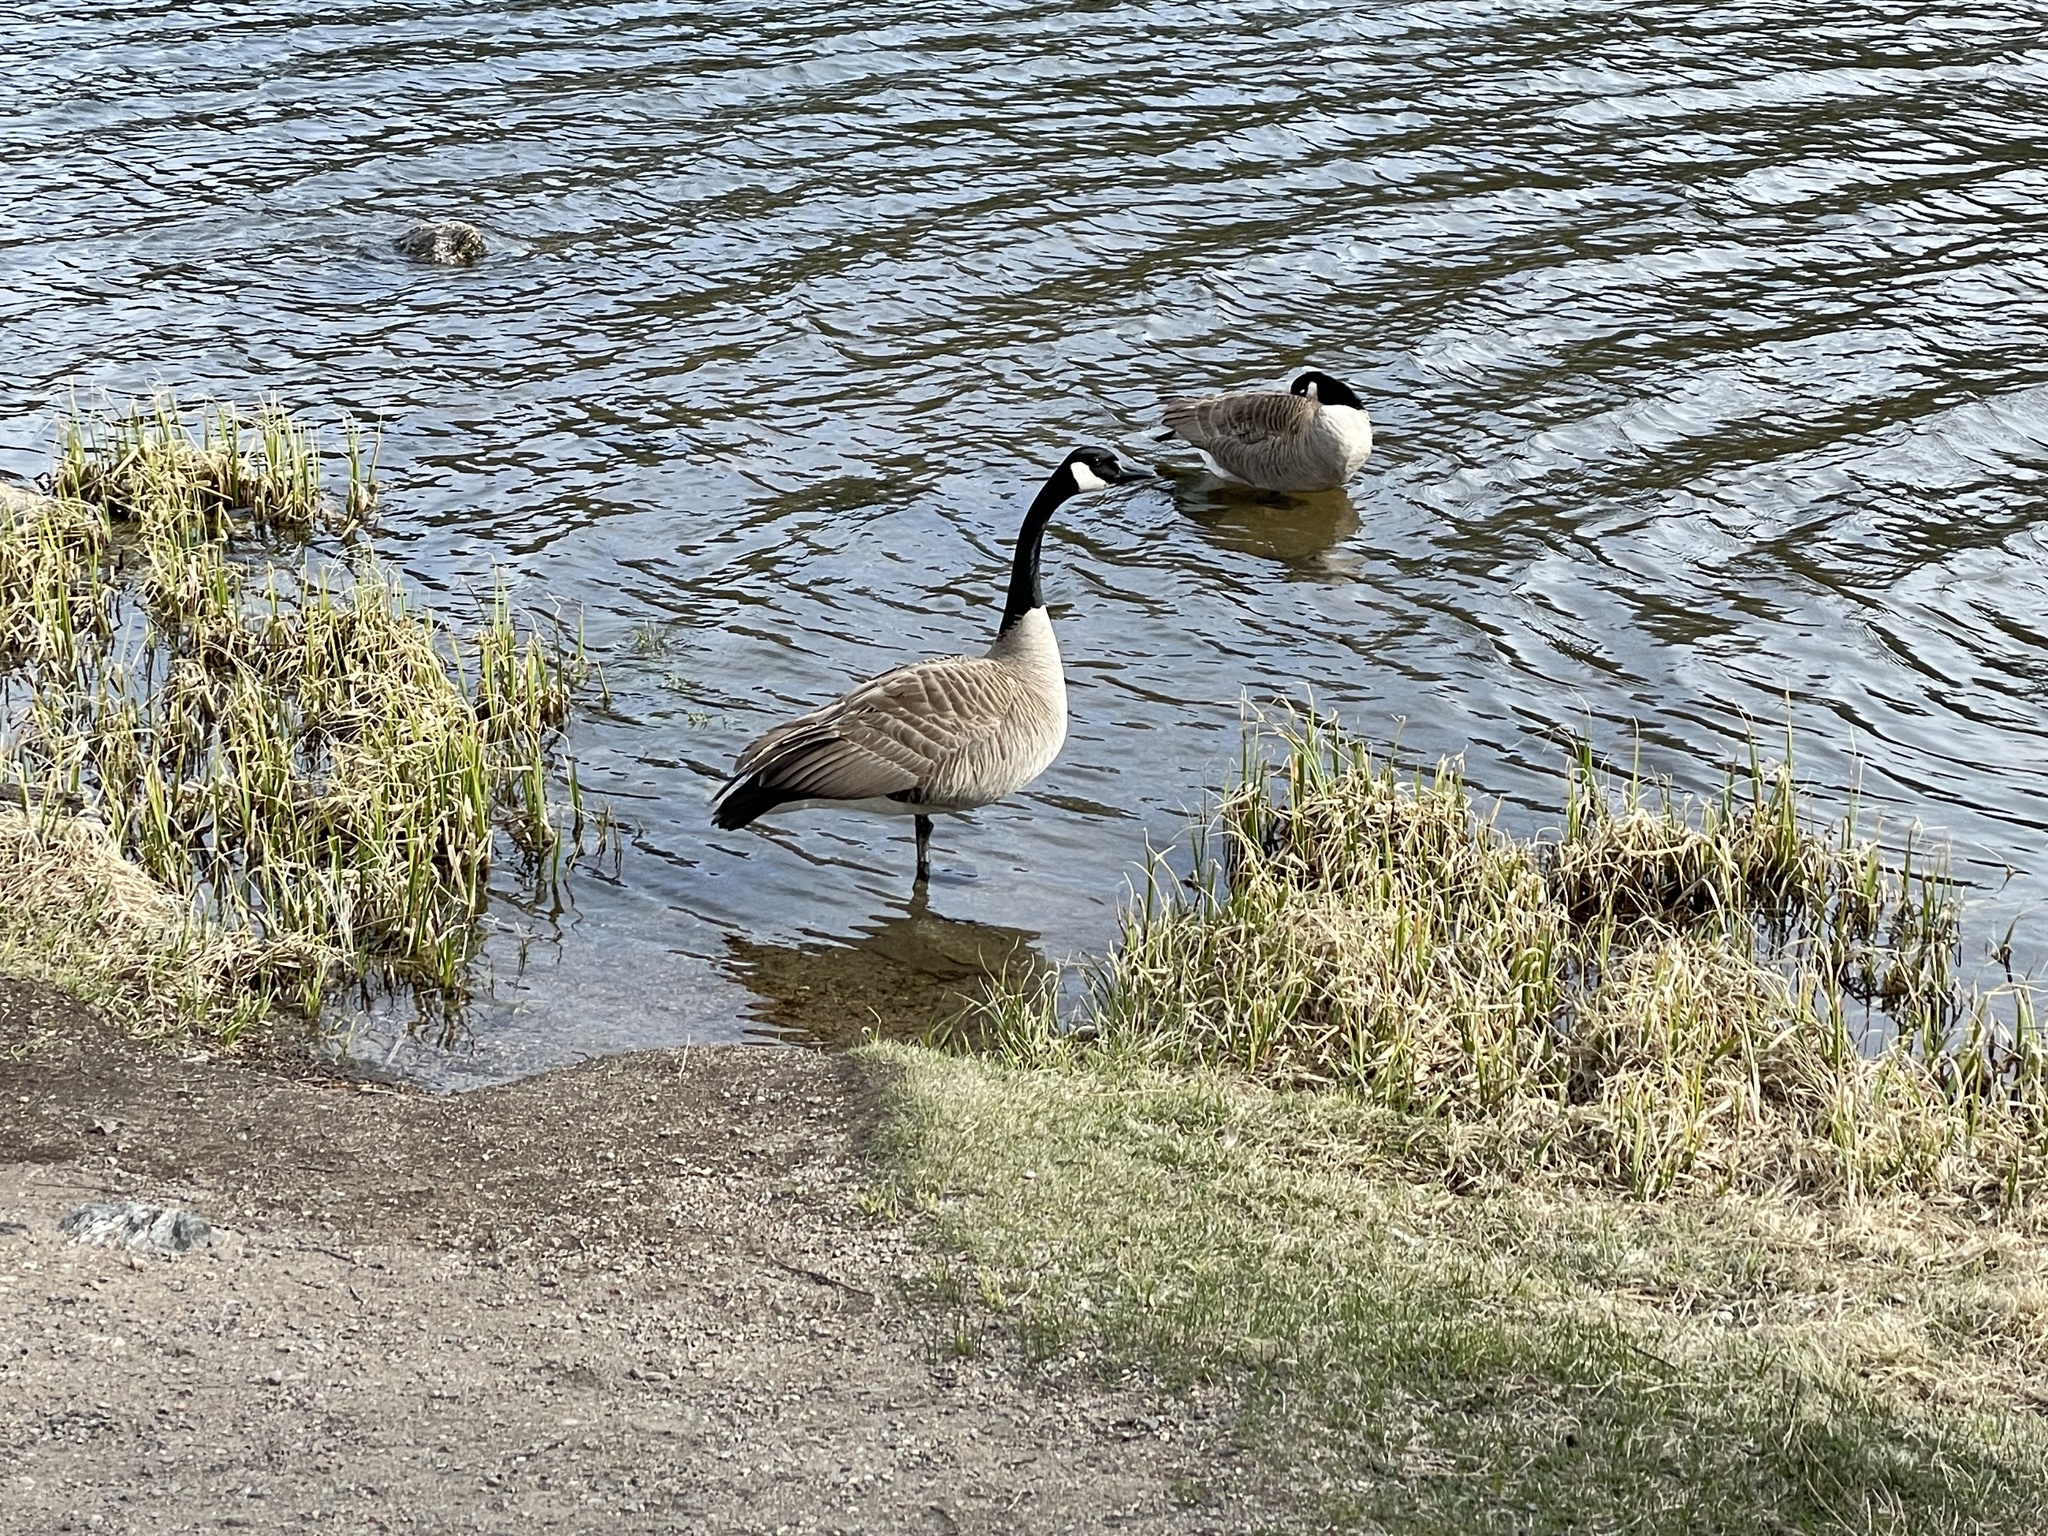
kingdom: Animalia
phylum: Chordata
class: Aves
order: Anseriformes
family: Anatidae
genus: Branta
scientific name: Branta canadensis
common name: Canada goose
